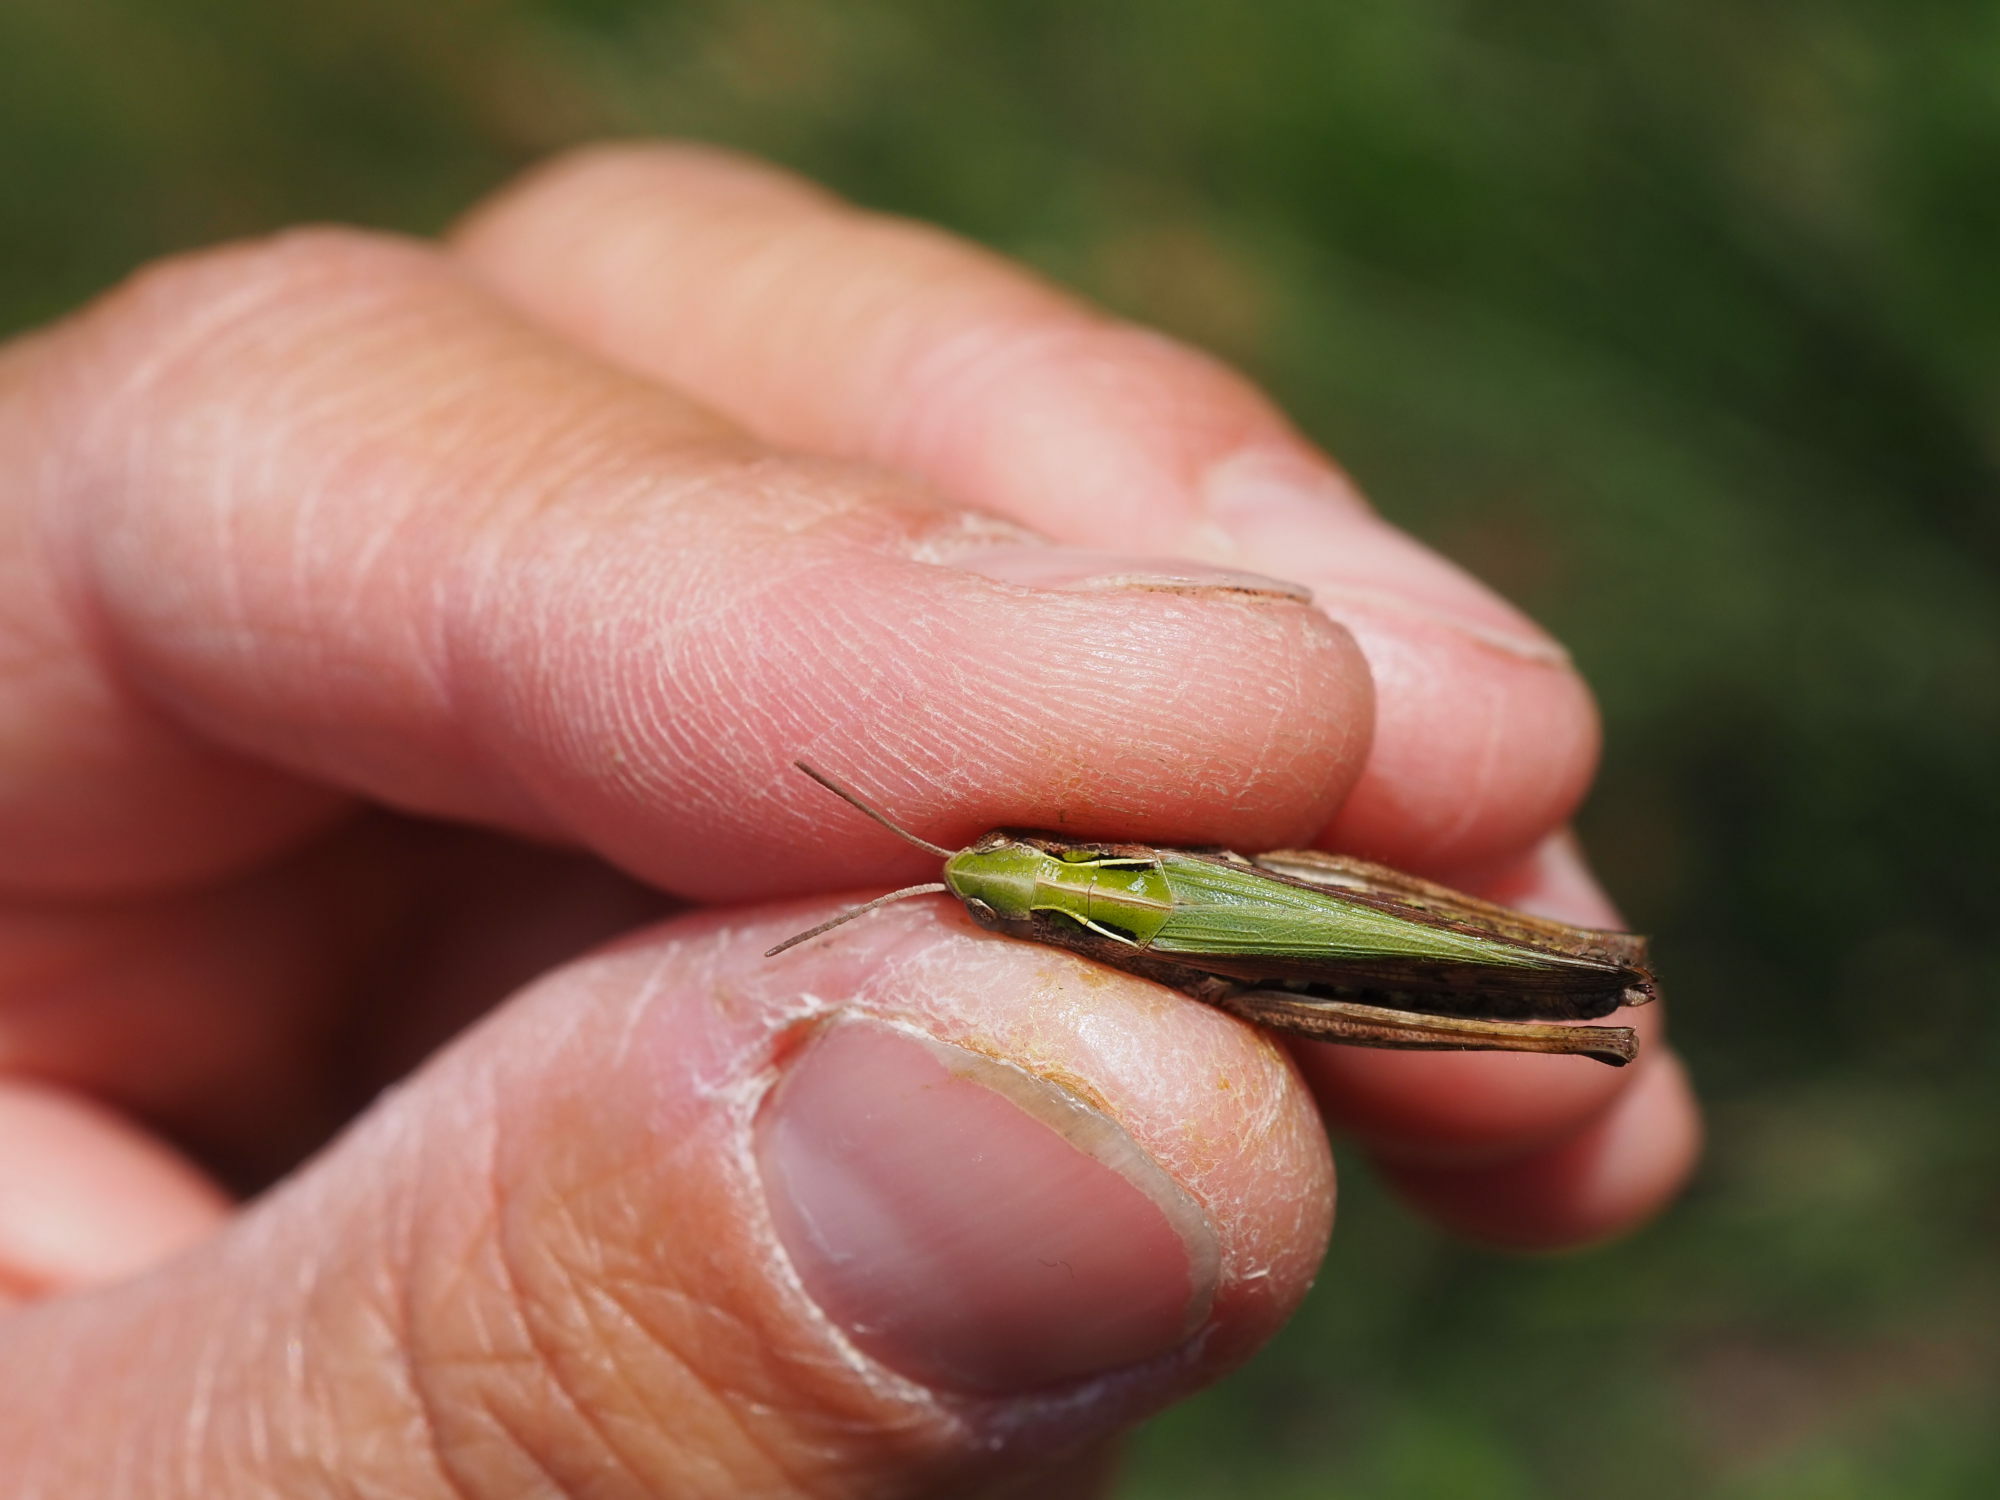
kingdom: Animalia
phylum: Arthropoda
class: Insecta
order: Orthoptera
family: Acrididae
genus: Omocestus
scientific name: Omocestus viridulus
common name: Common green grasshopper
